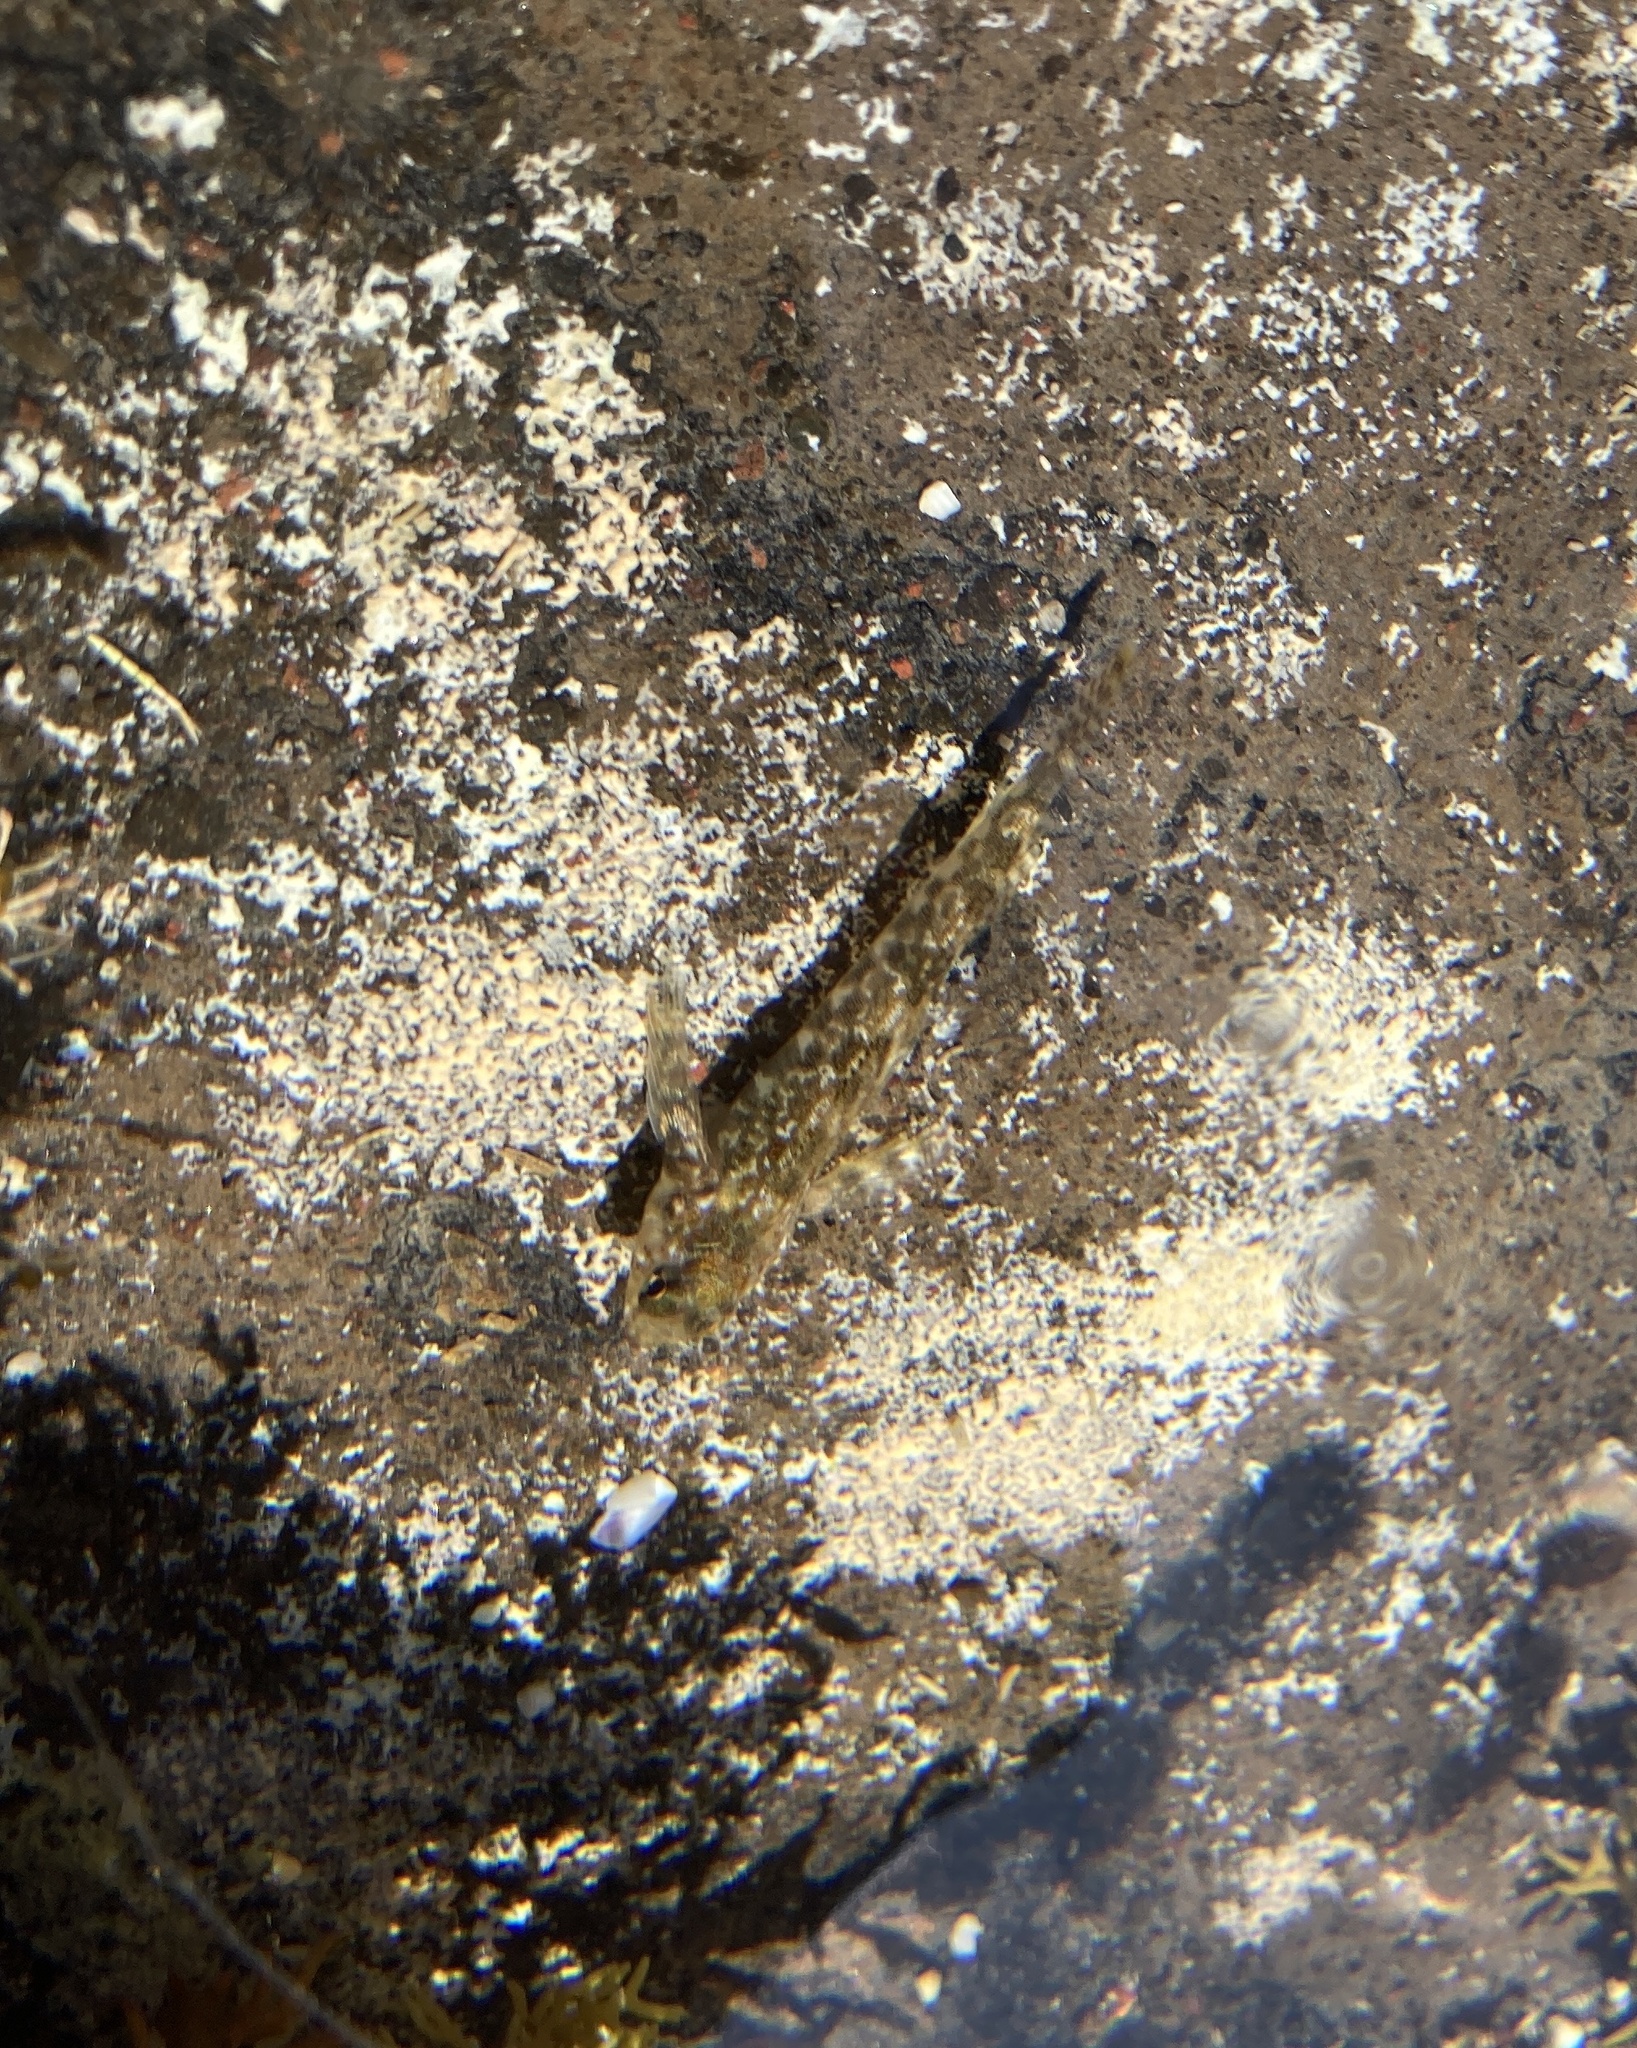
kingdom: Animalia
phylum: Chordata
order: Perciformes
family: Tripterygiidae
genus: Bellapiscis
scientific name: Bellapiscis medius
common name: Twister
